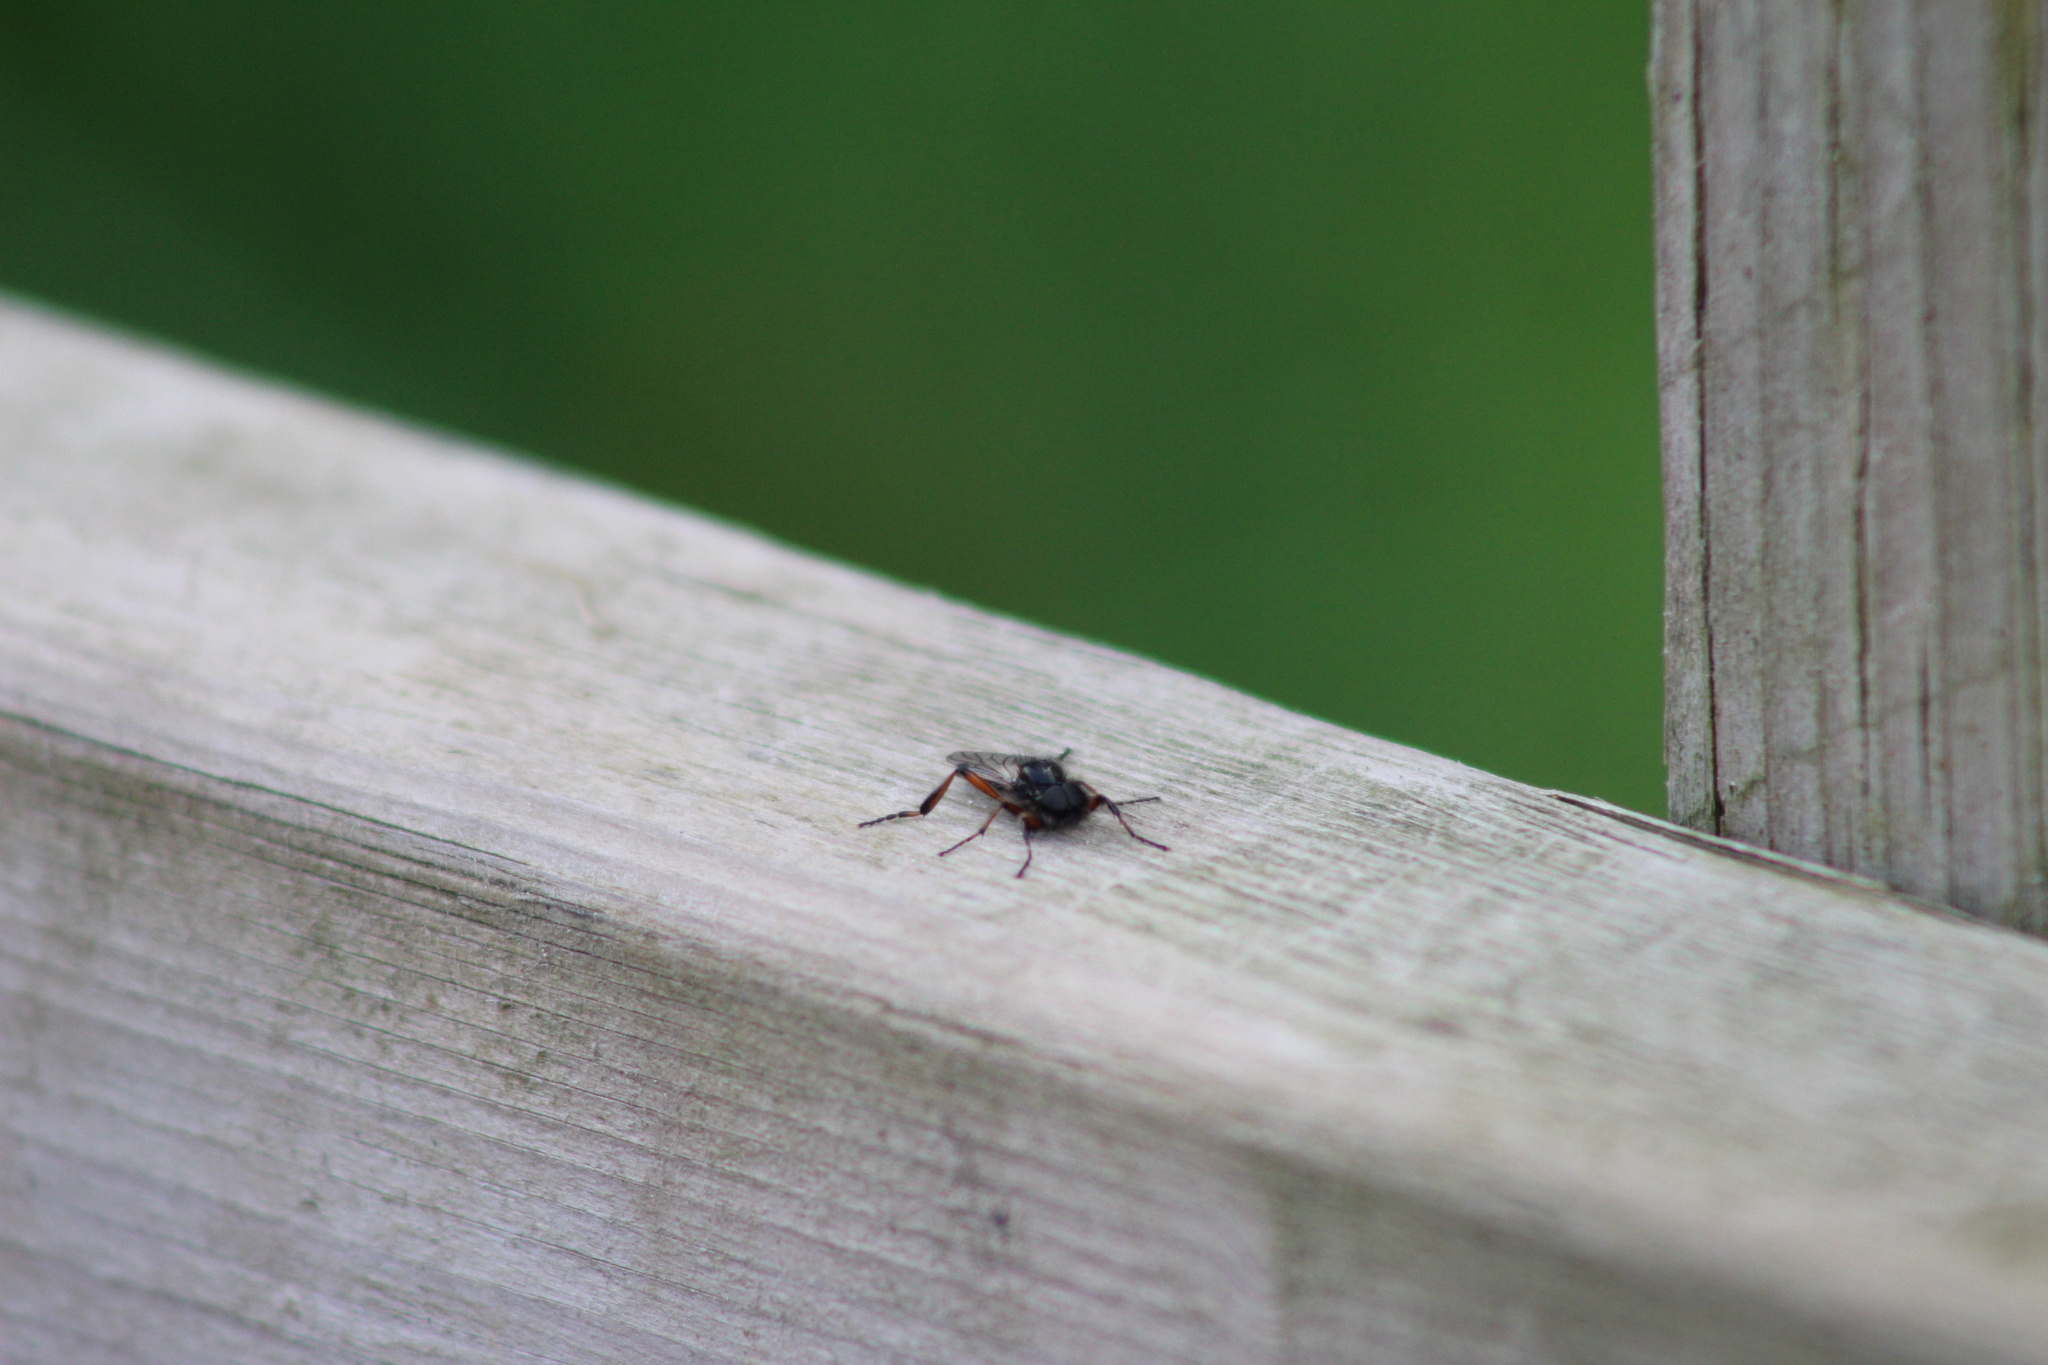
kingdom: Animalia
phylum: Arthropoda
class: Insecta
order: Diptera
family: Bibionidae
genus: Bibio
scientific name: Bibio
